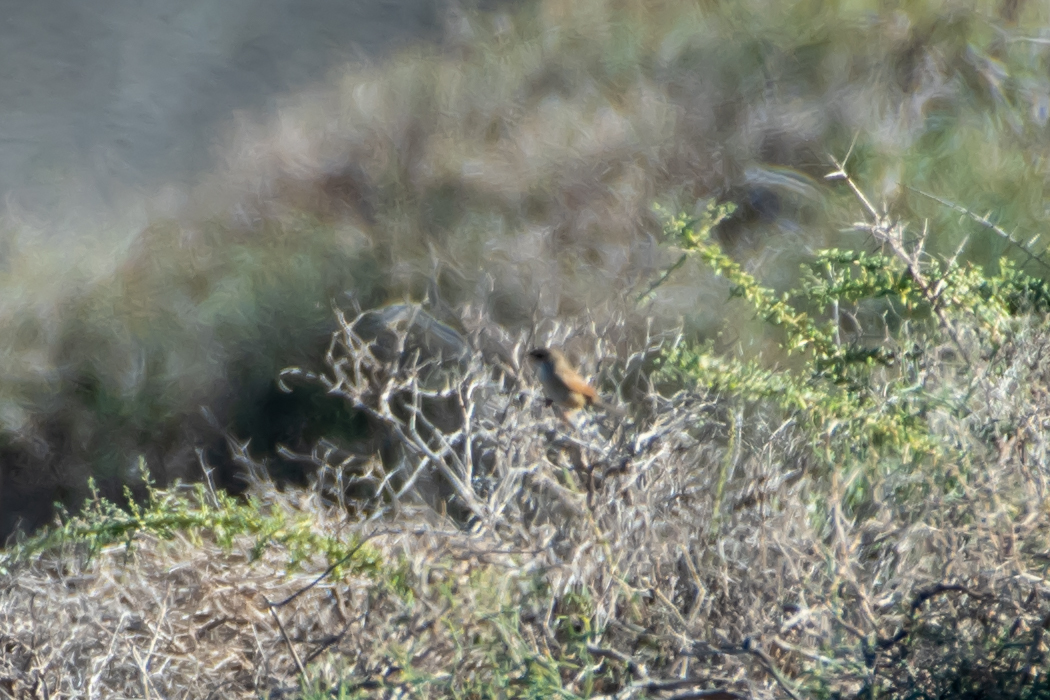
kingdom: Animalia
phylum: Chordata
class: Aves
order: Passeriformes
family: Sylviidae
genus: Sylvia
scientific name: Sylvia conspicillata
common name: Spectacled warbler
